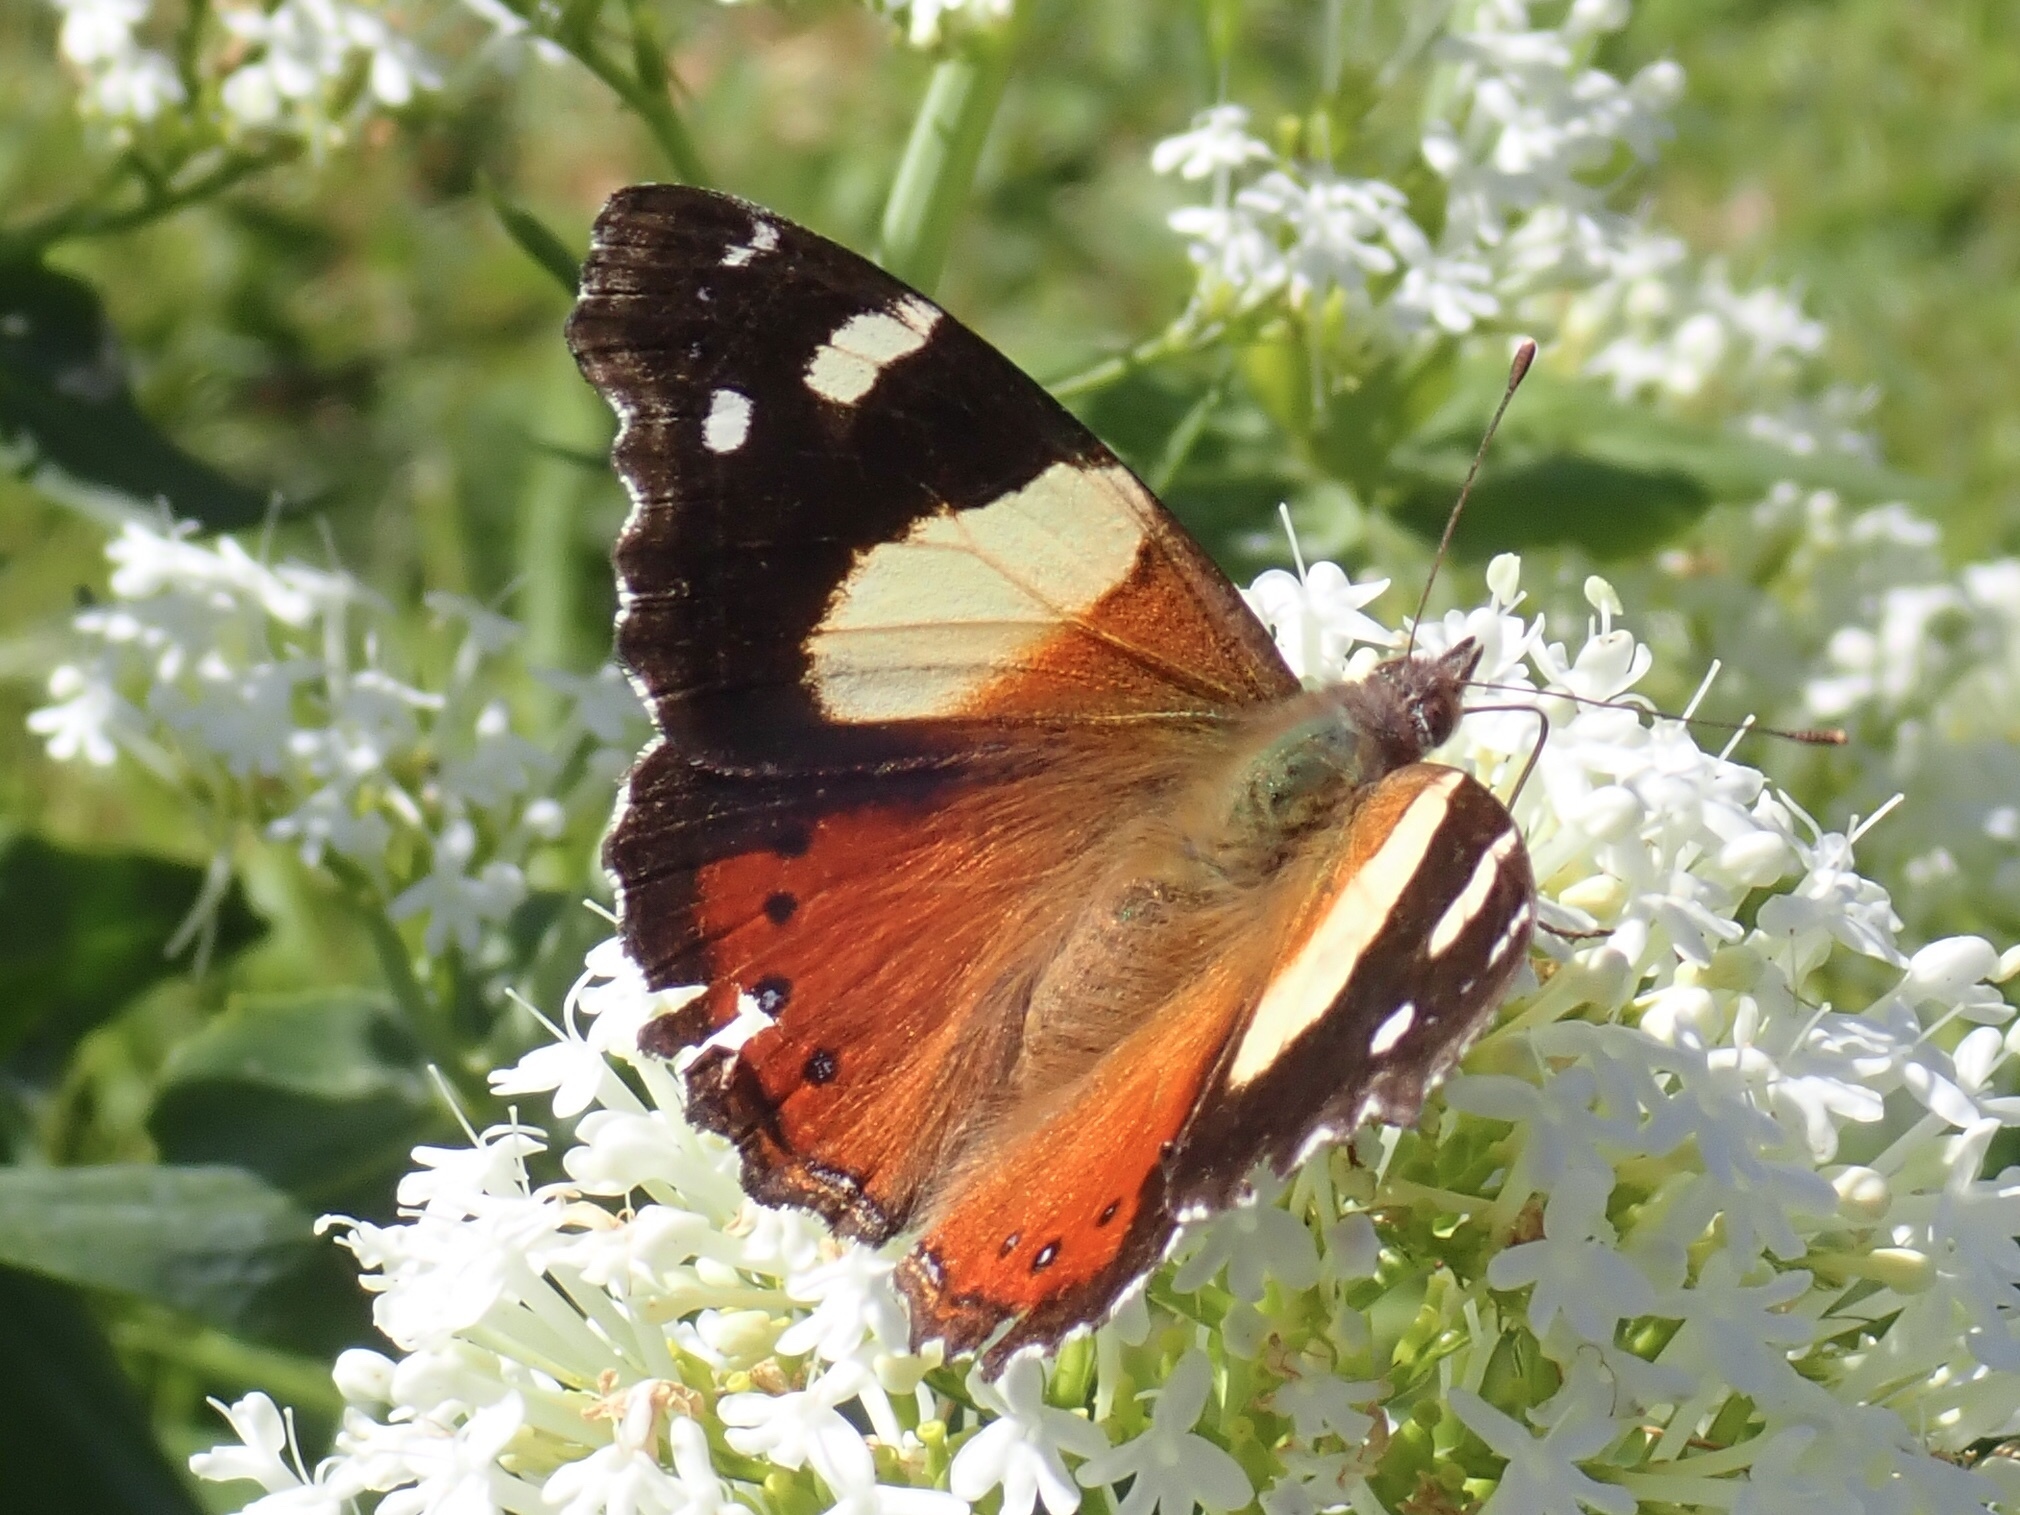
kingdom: Animalia
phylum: Arthropoda
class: Insecta
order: Lepidoptera
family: Nymphalidae
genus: Vanessa
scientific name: Vanessa itea
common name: Yellow admiral
